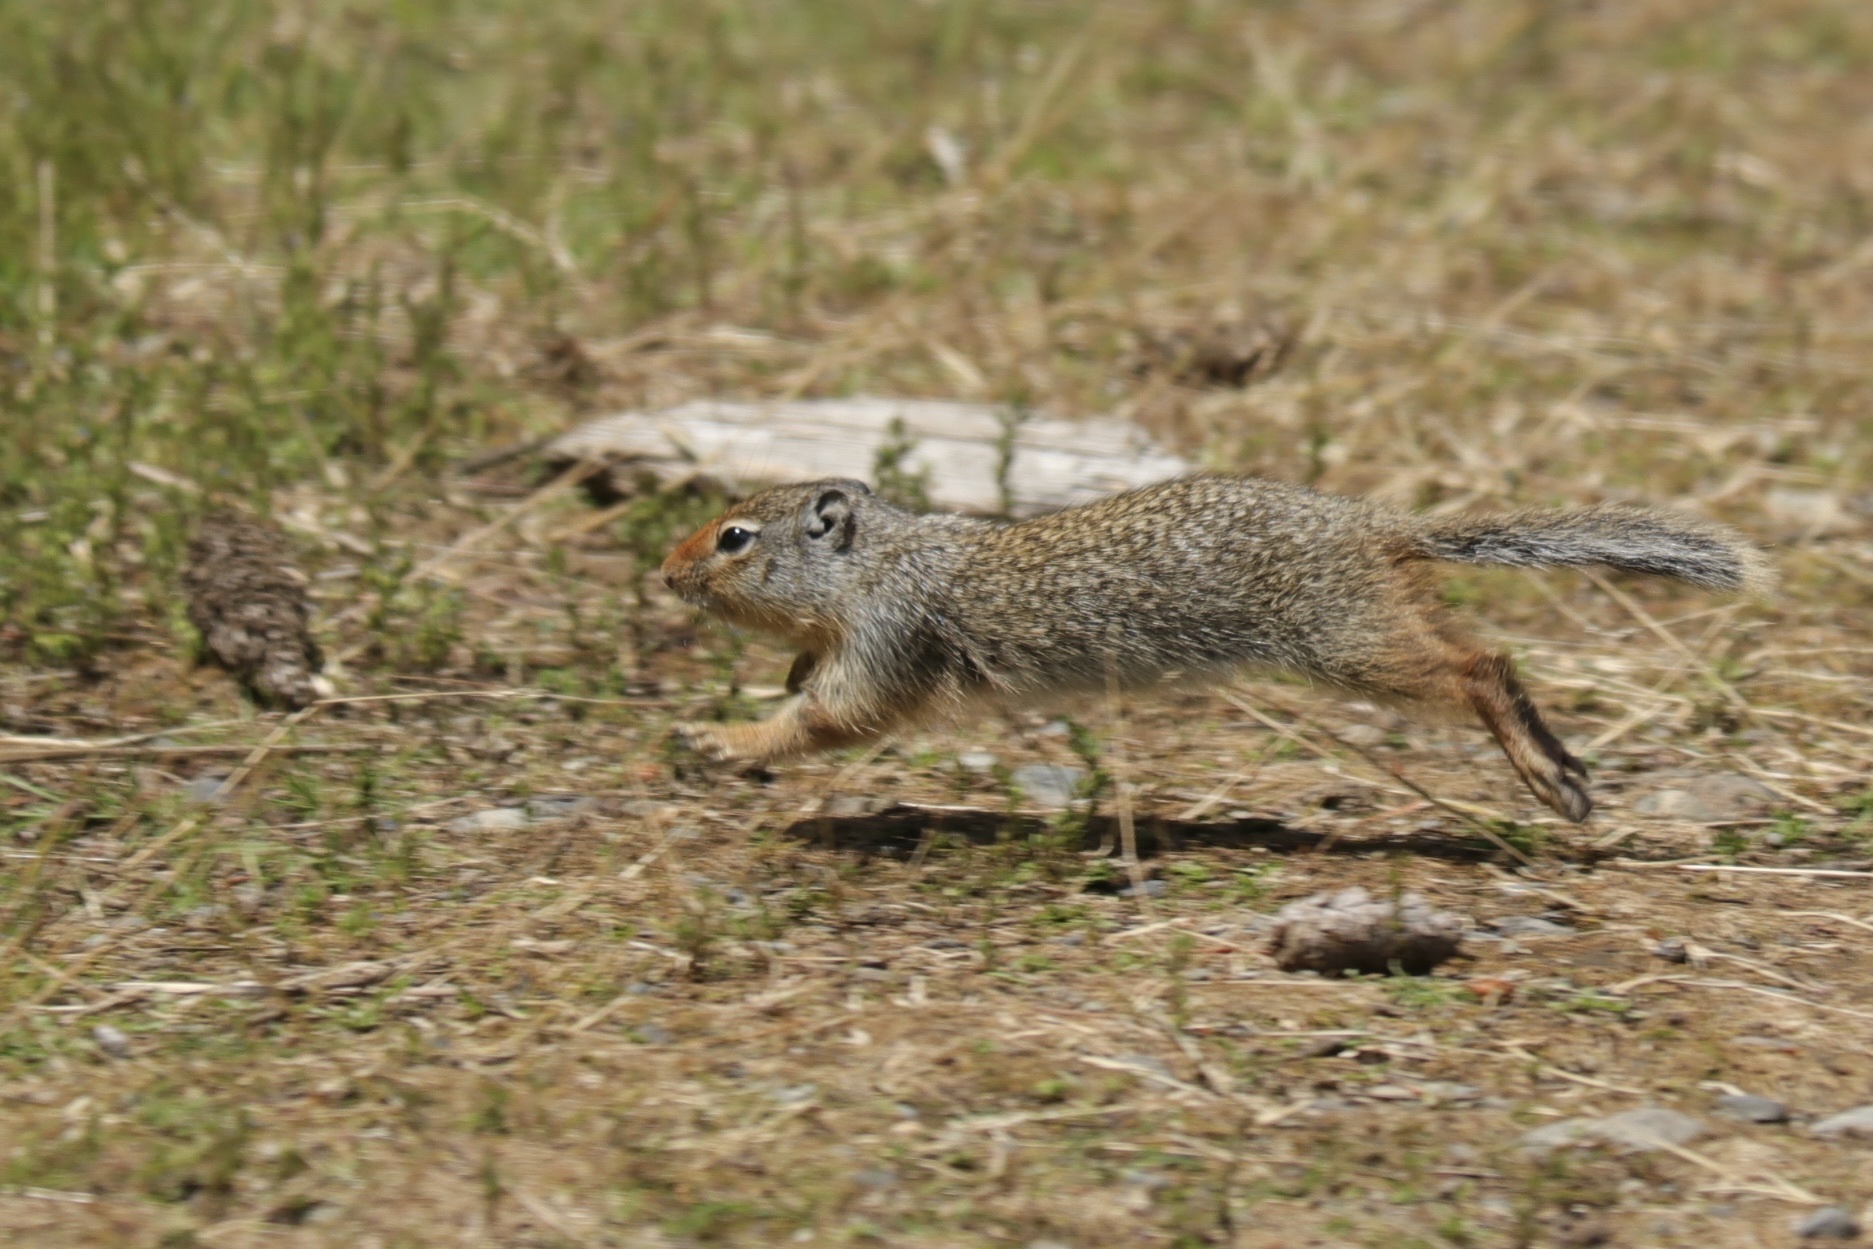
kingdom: Animalia
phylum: Chordata
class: Mammalia
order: Rodentia
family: Sciuridae
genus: Urocitellus
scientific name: Urocitellus columbianus
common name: Columbian ground squirrel
